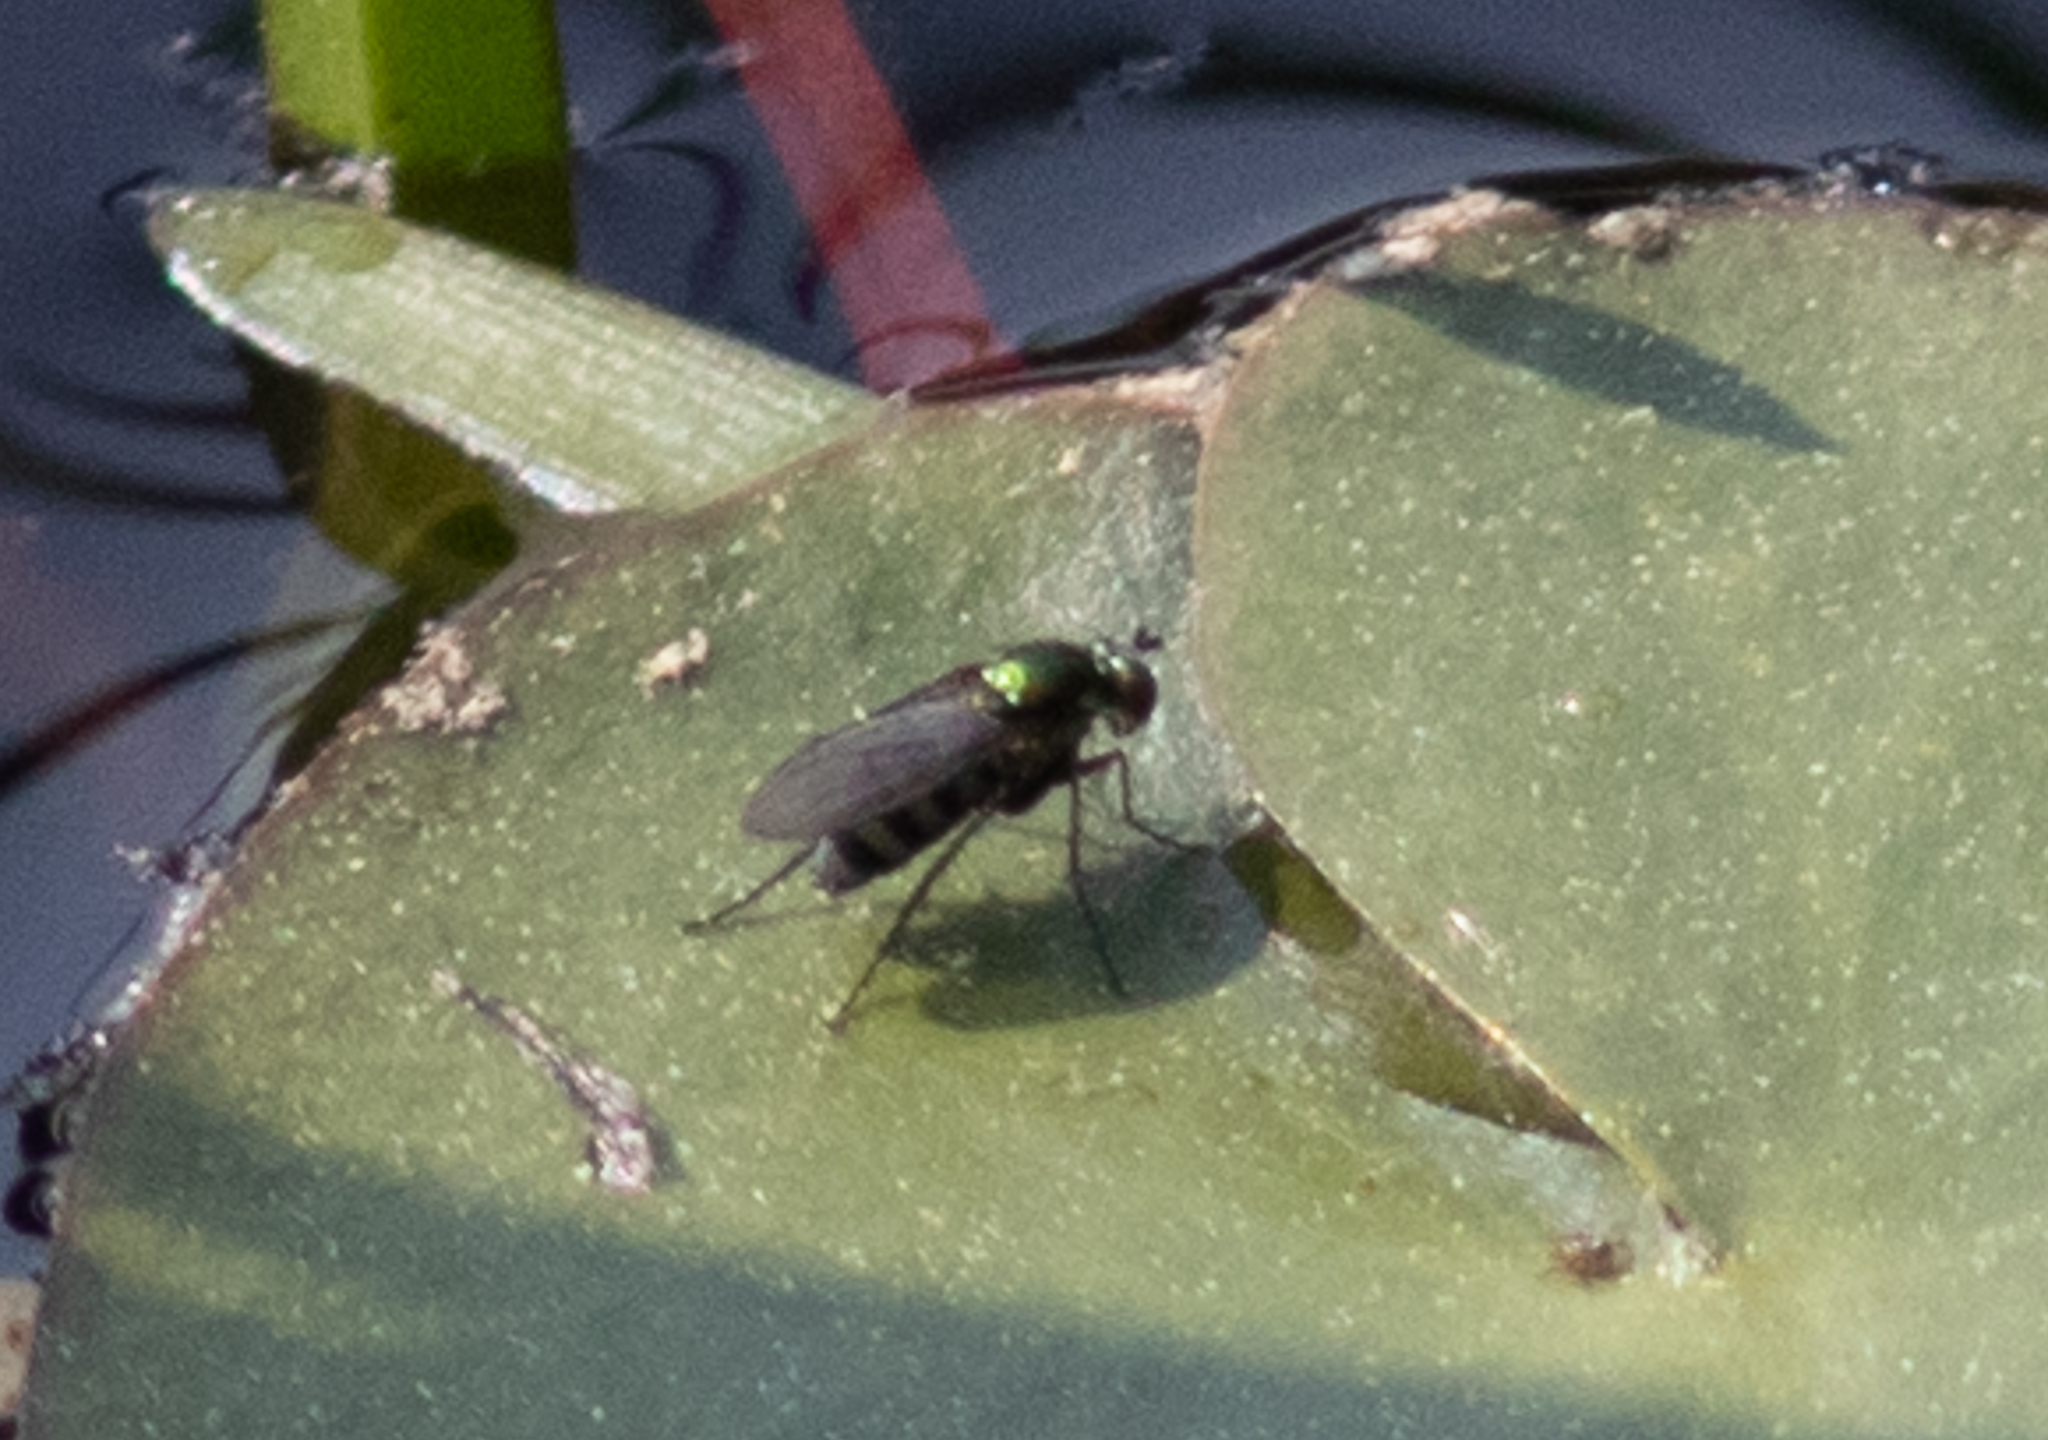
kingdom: Animalia
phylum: Arthropoda
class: Insecta
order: Diptera
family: Dolichopodidae
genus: Dolichopus
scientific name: Dolichopus
